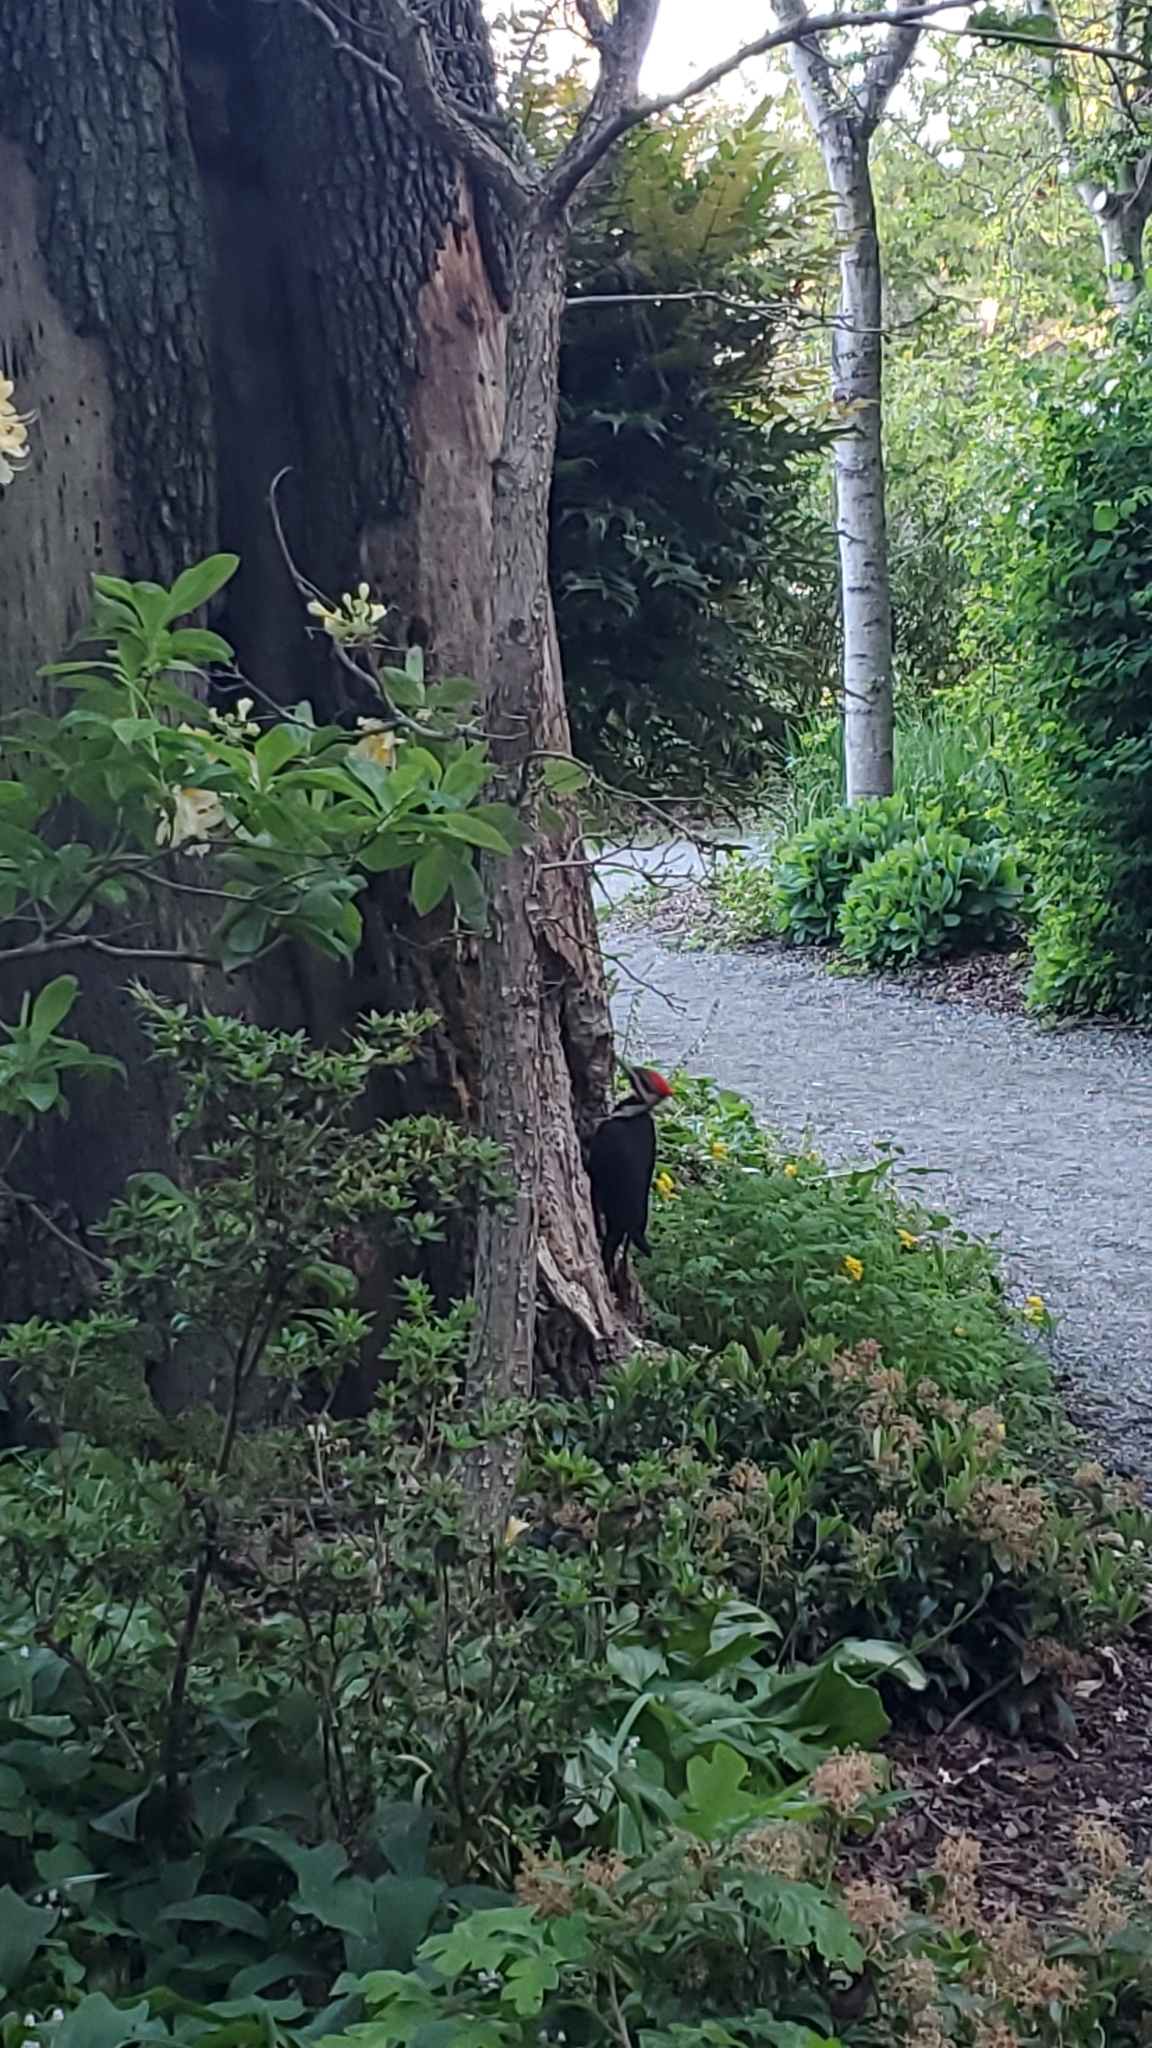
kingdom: Animalia
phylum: Chordata
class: Aves
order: Piciformes
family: Picidae
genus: Dryocopus
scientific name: Dryocopus pileatus
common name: Pileated woodpecker
